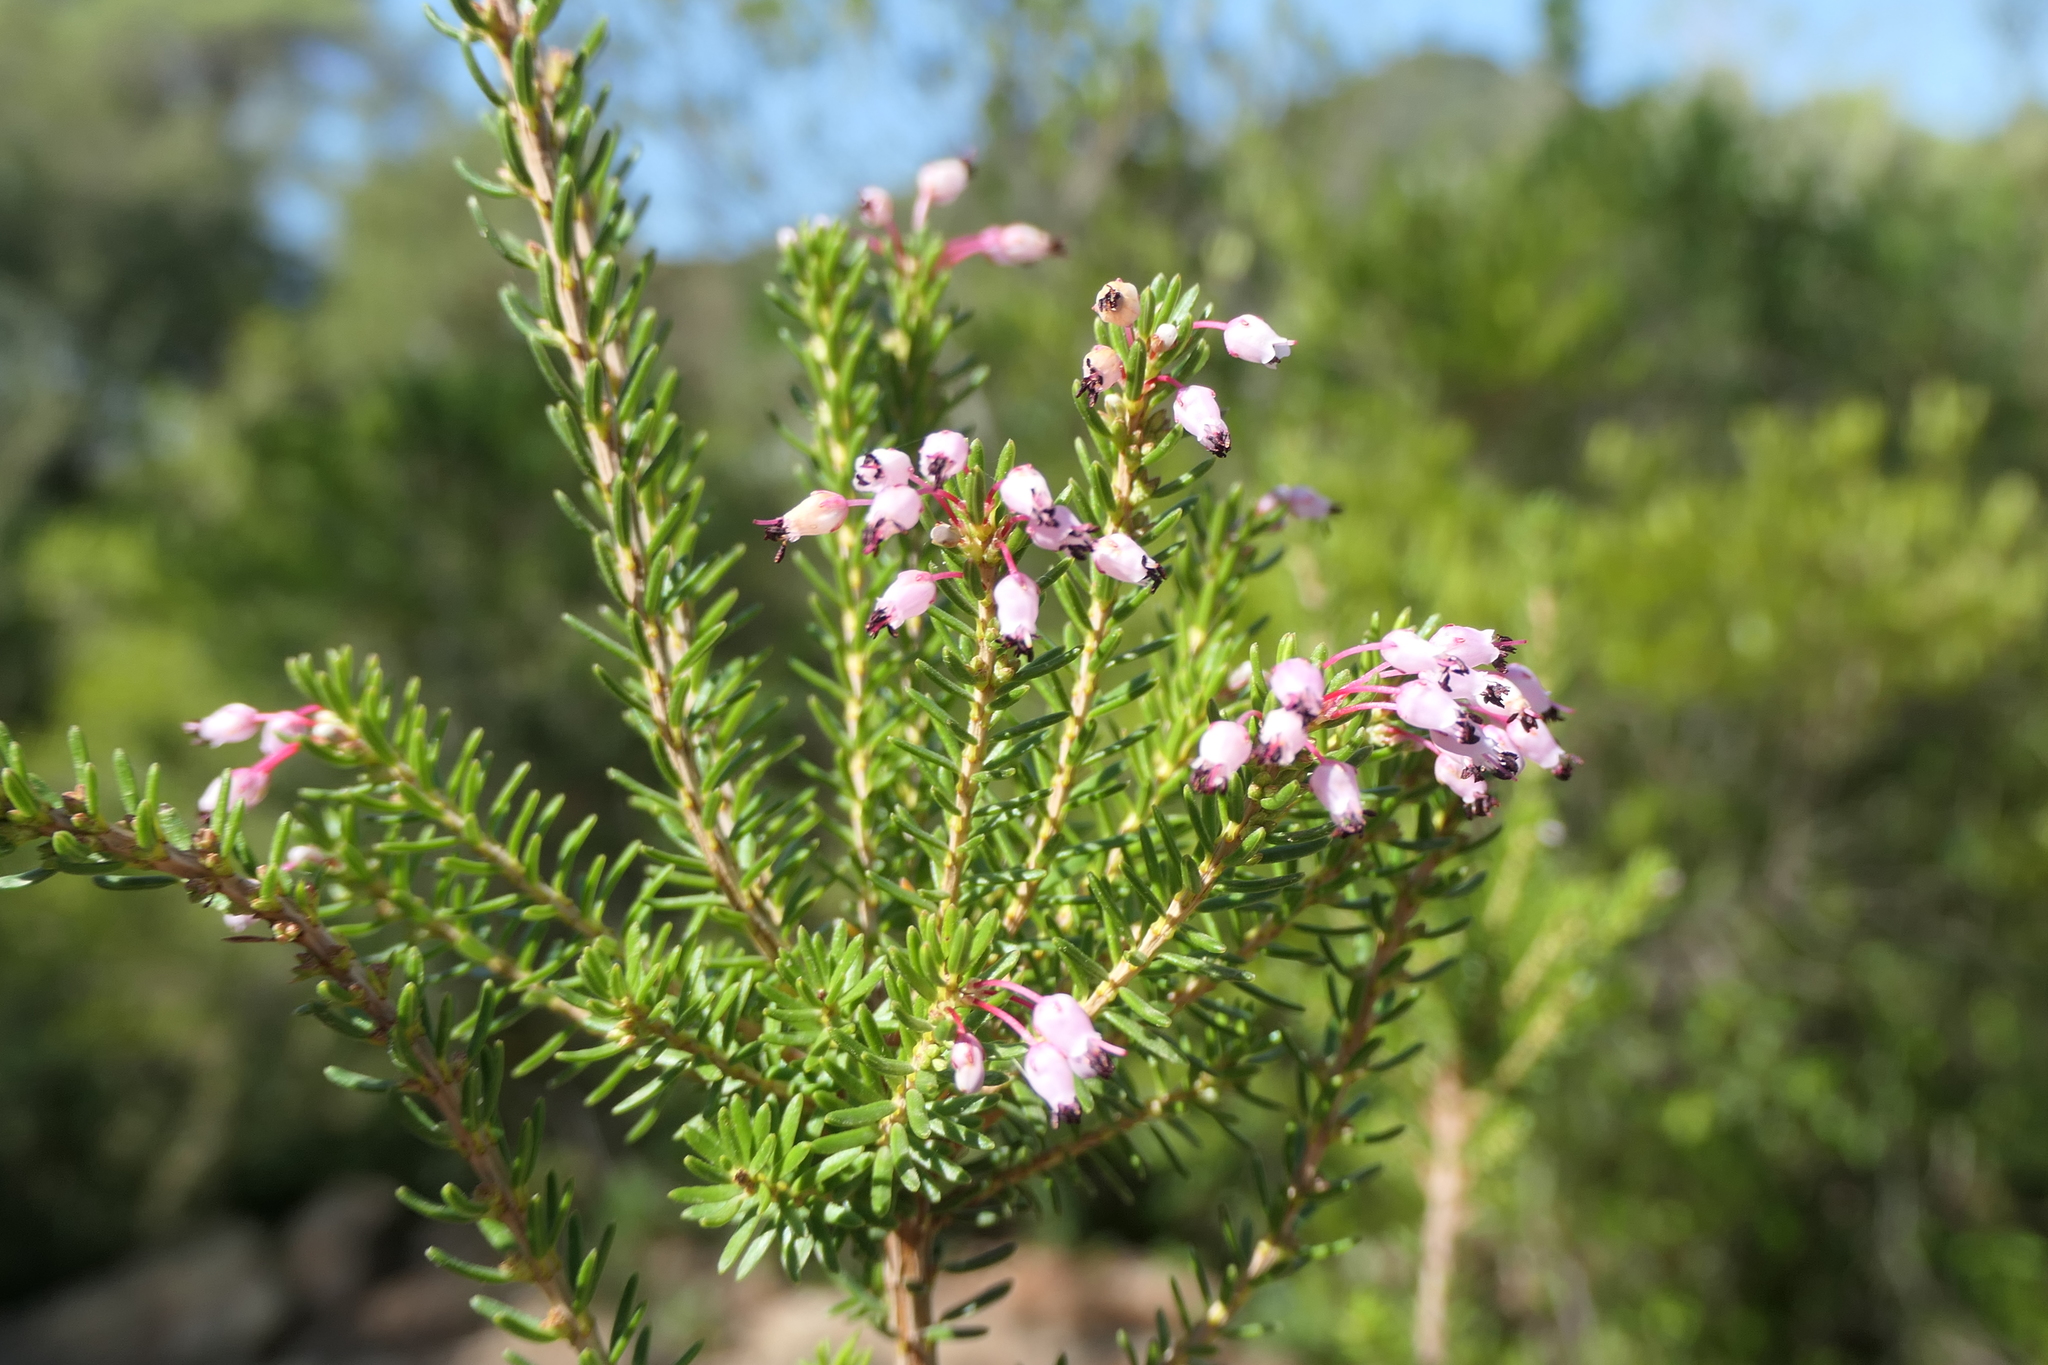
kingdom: Plantae
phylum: Tracheophyta
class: Magnoliopsida
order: Ericales
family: Ericaceae
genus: Erica
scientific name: Erica multiflora
